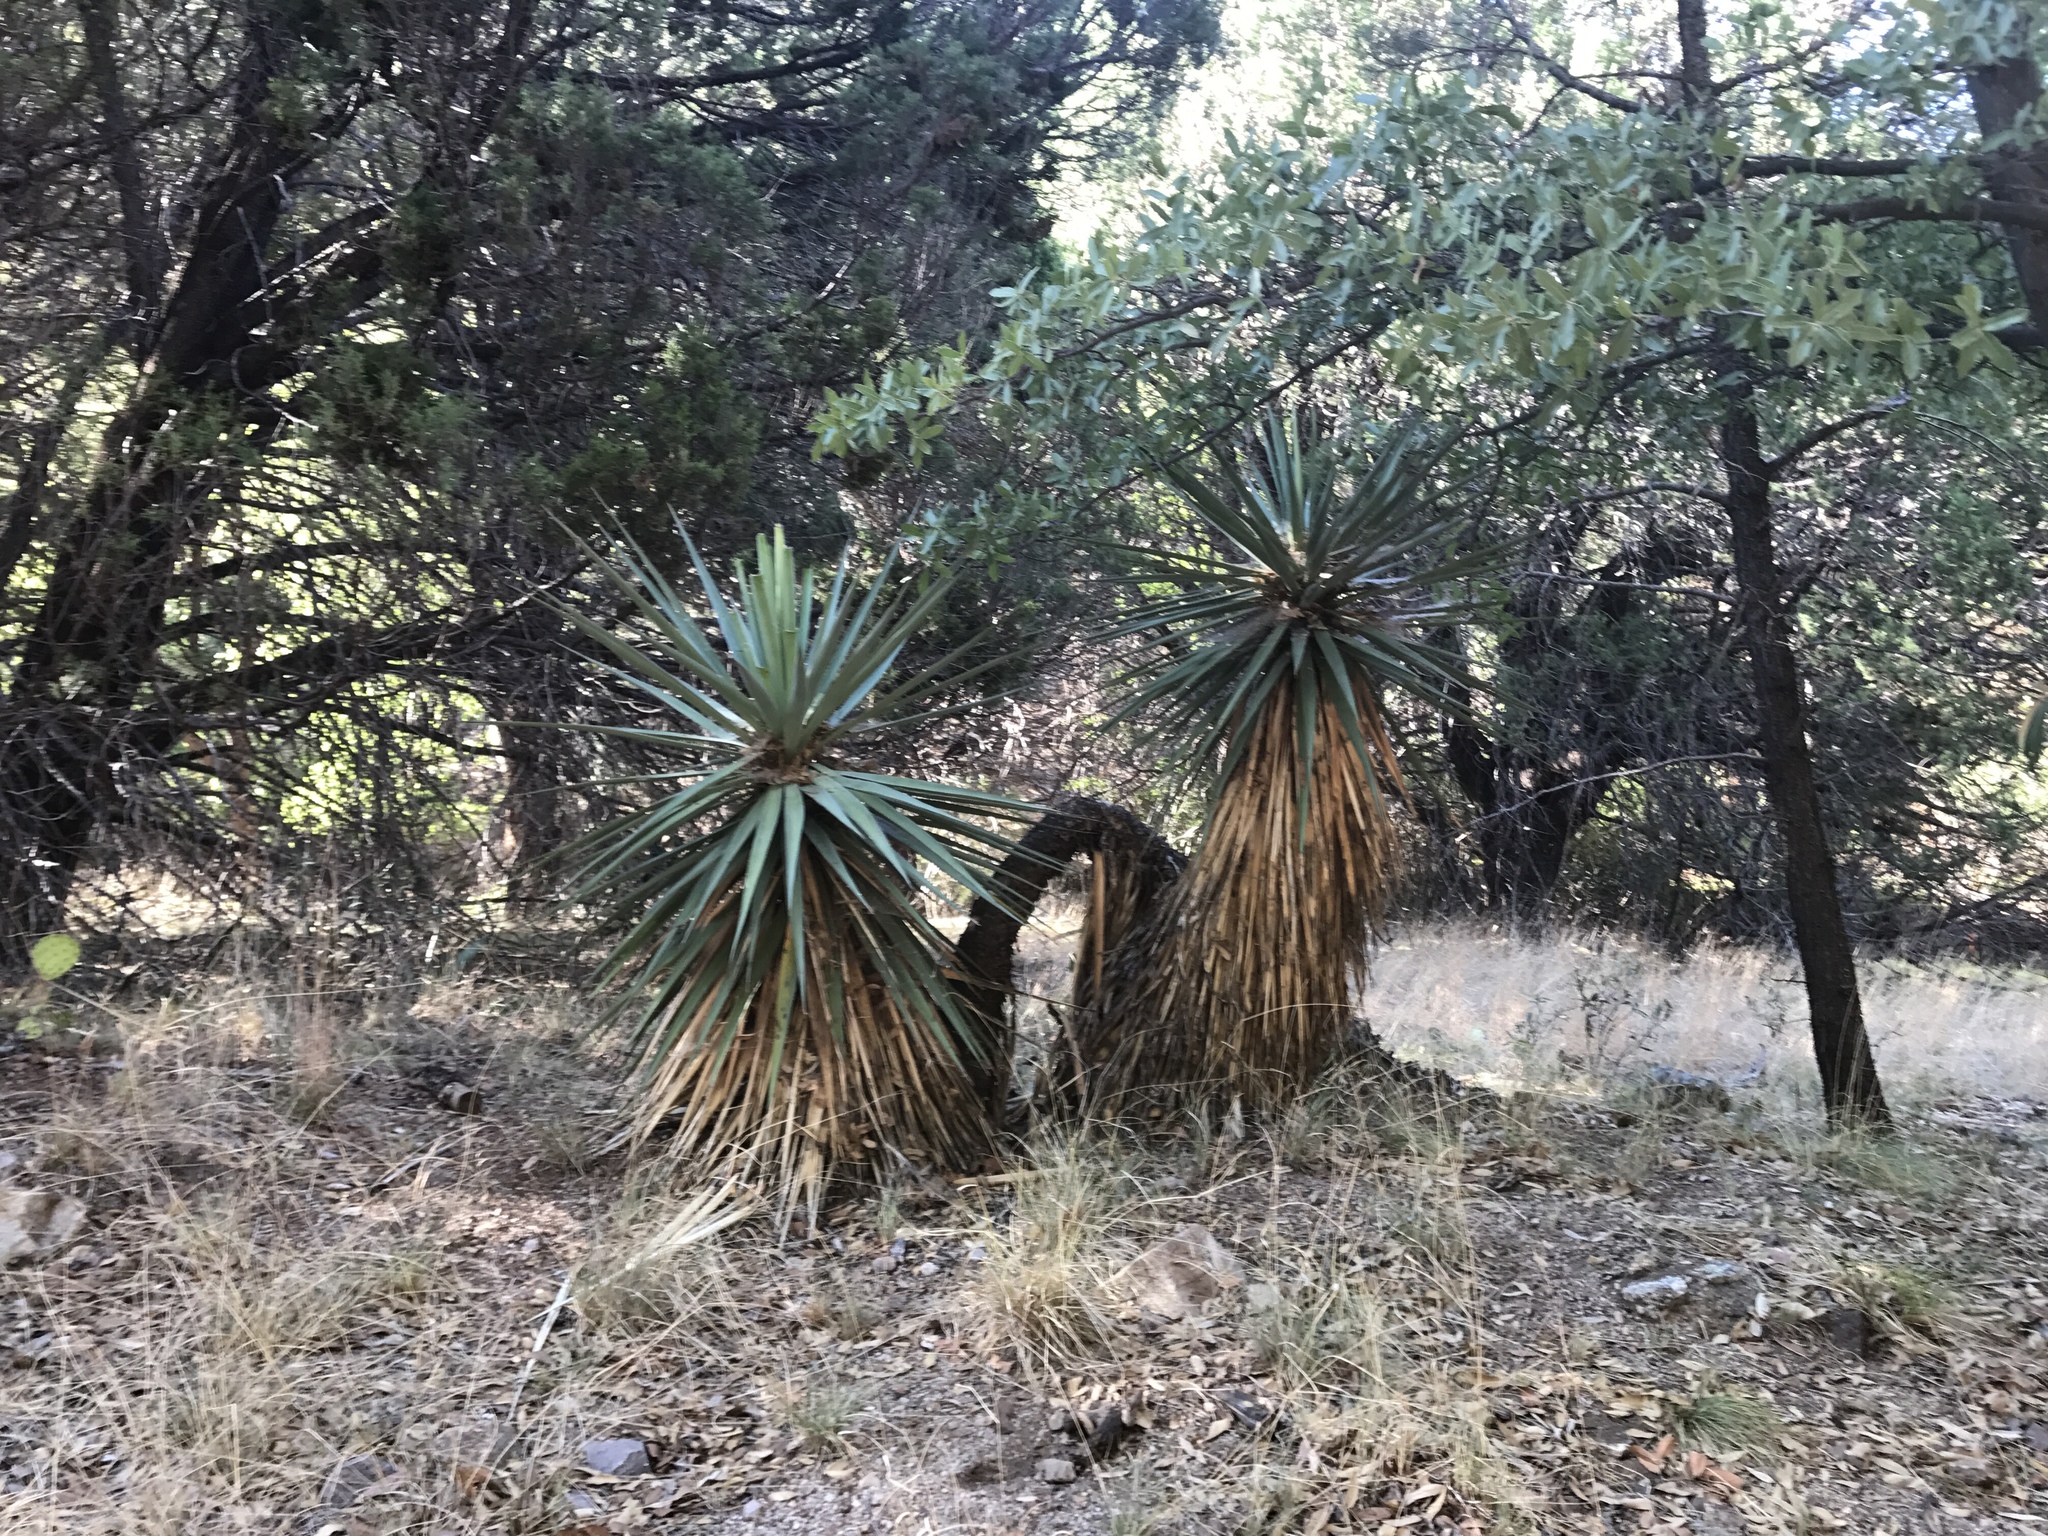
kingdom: Plantae
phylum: Tracheophyta
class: Liliopsida
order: Asparagales
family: Asparagaceae
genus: Yucca
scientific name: Yucca schottii
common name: Hoary yucca
